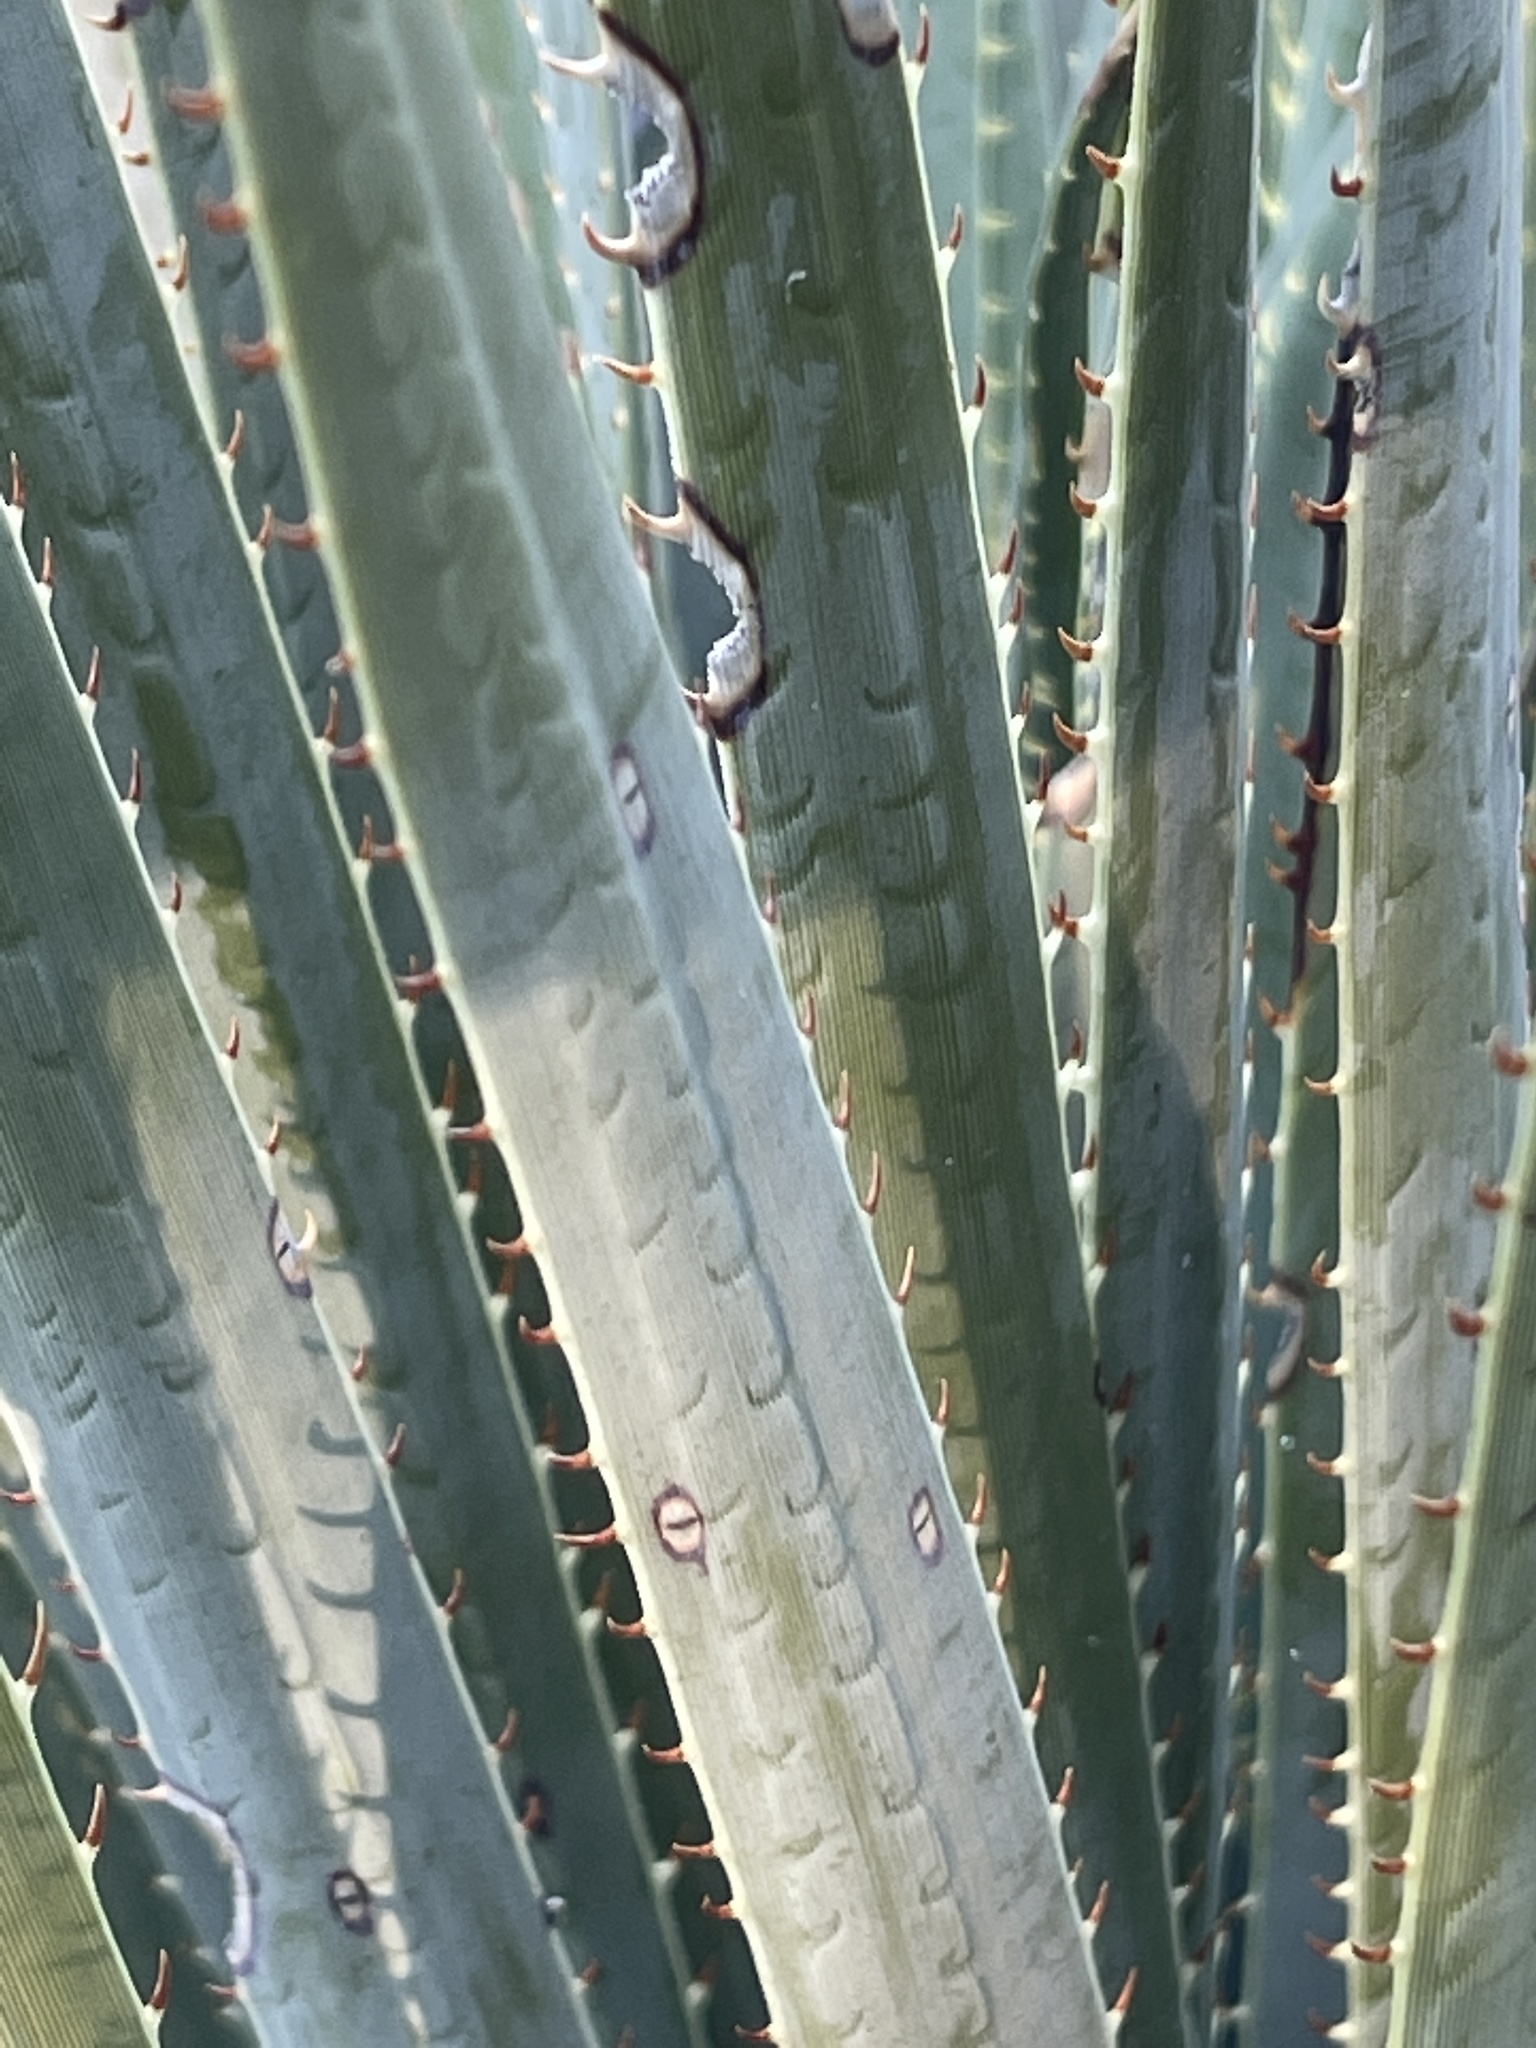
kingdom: Plantae
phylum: Tracheophyta
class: Liliopsida
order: Asparagales
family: Asparagaceae
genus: Dasylirion
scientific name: Dasylirion wheeleri
